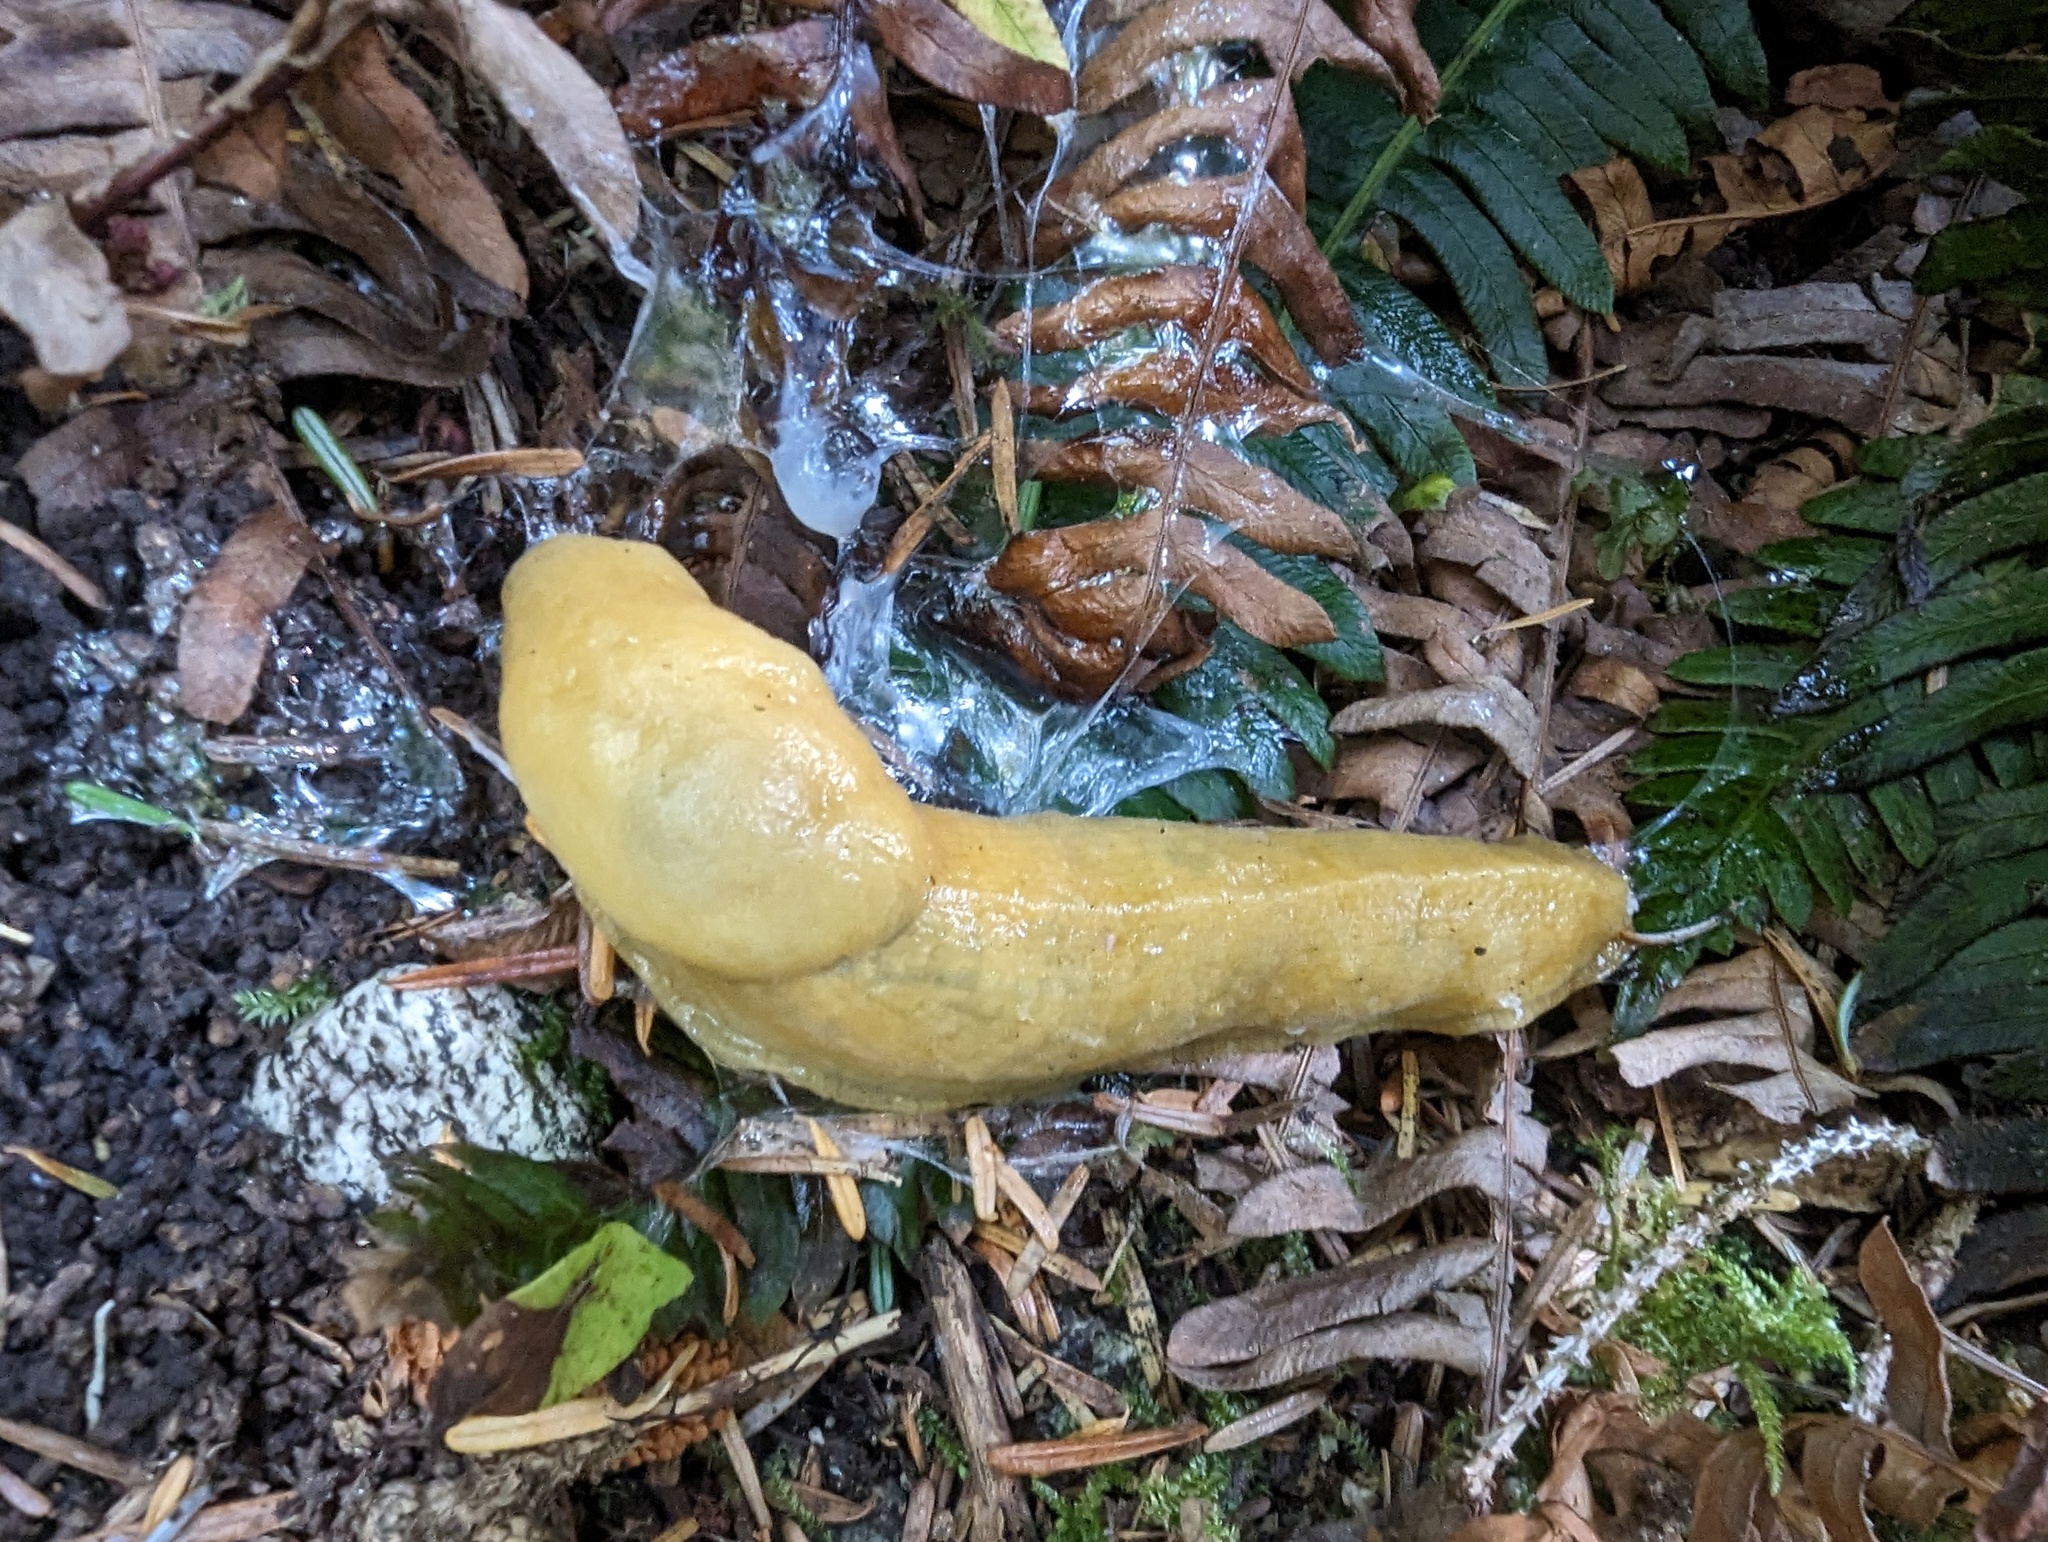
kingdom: Animalia
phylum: Mollusca
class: Gastropoda
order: Stylommatophora
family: Ariolimacidae
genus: Ariolimax
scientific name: Ariolimax columbianus
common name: Pacific banana slug
